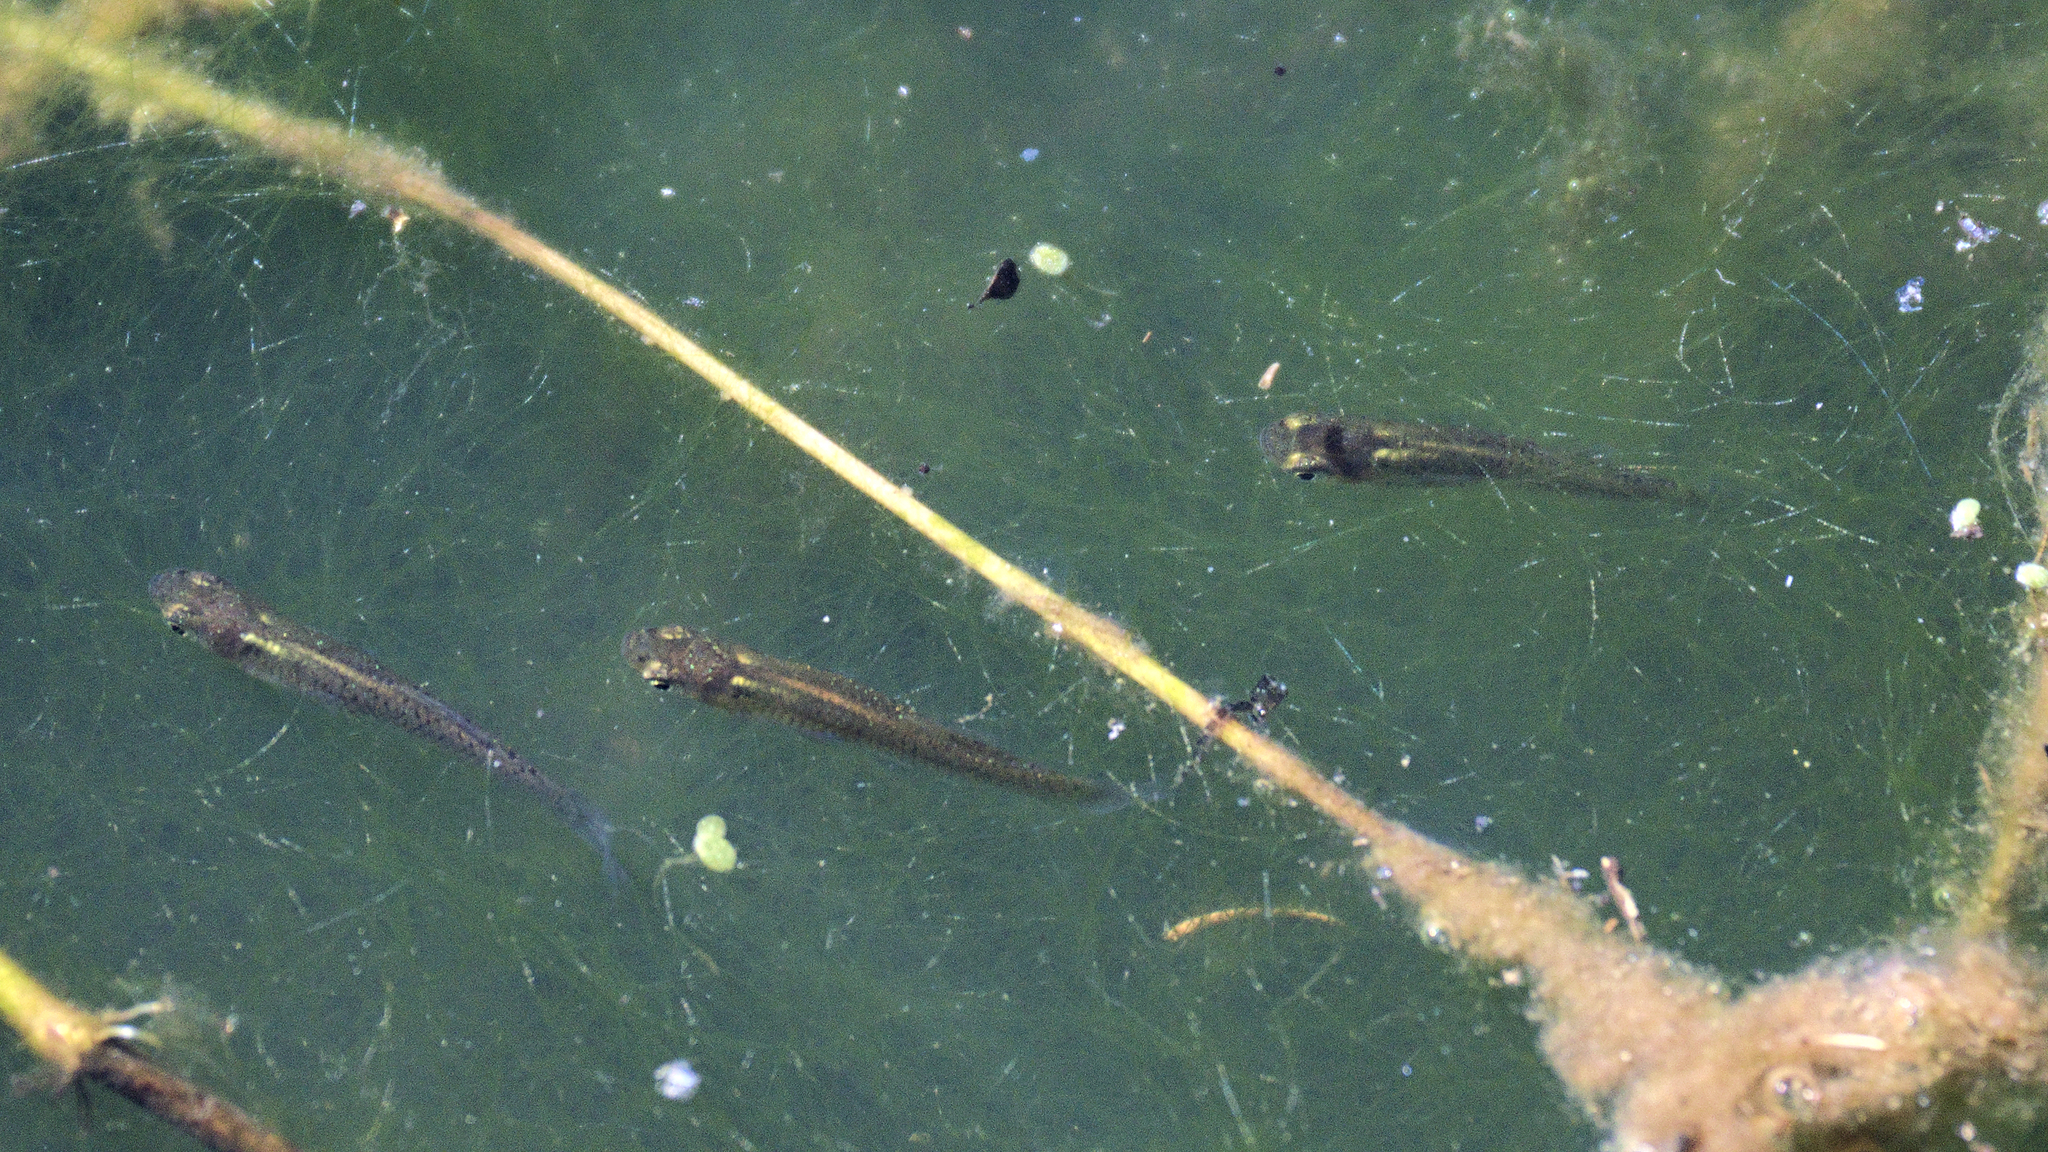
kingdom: Animalia
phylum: Chordata
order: Cyprinodontiformes
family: Poeciliidae
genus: Gambusia
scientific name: Gambusia holbrooki
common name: Eastern mosquitofish
